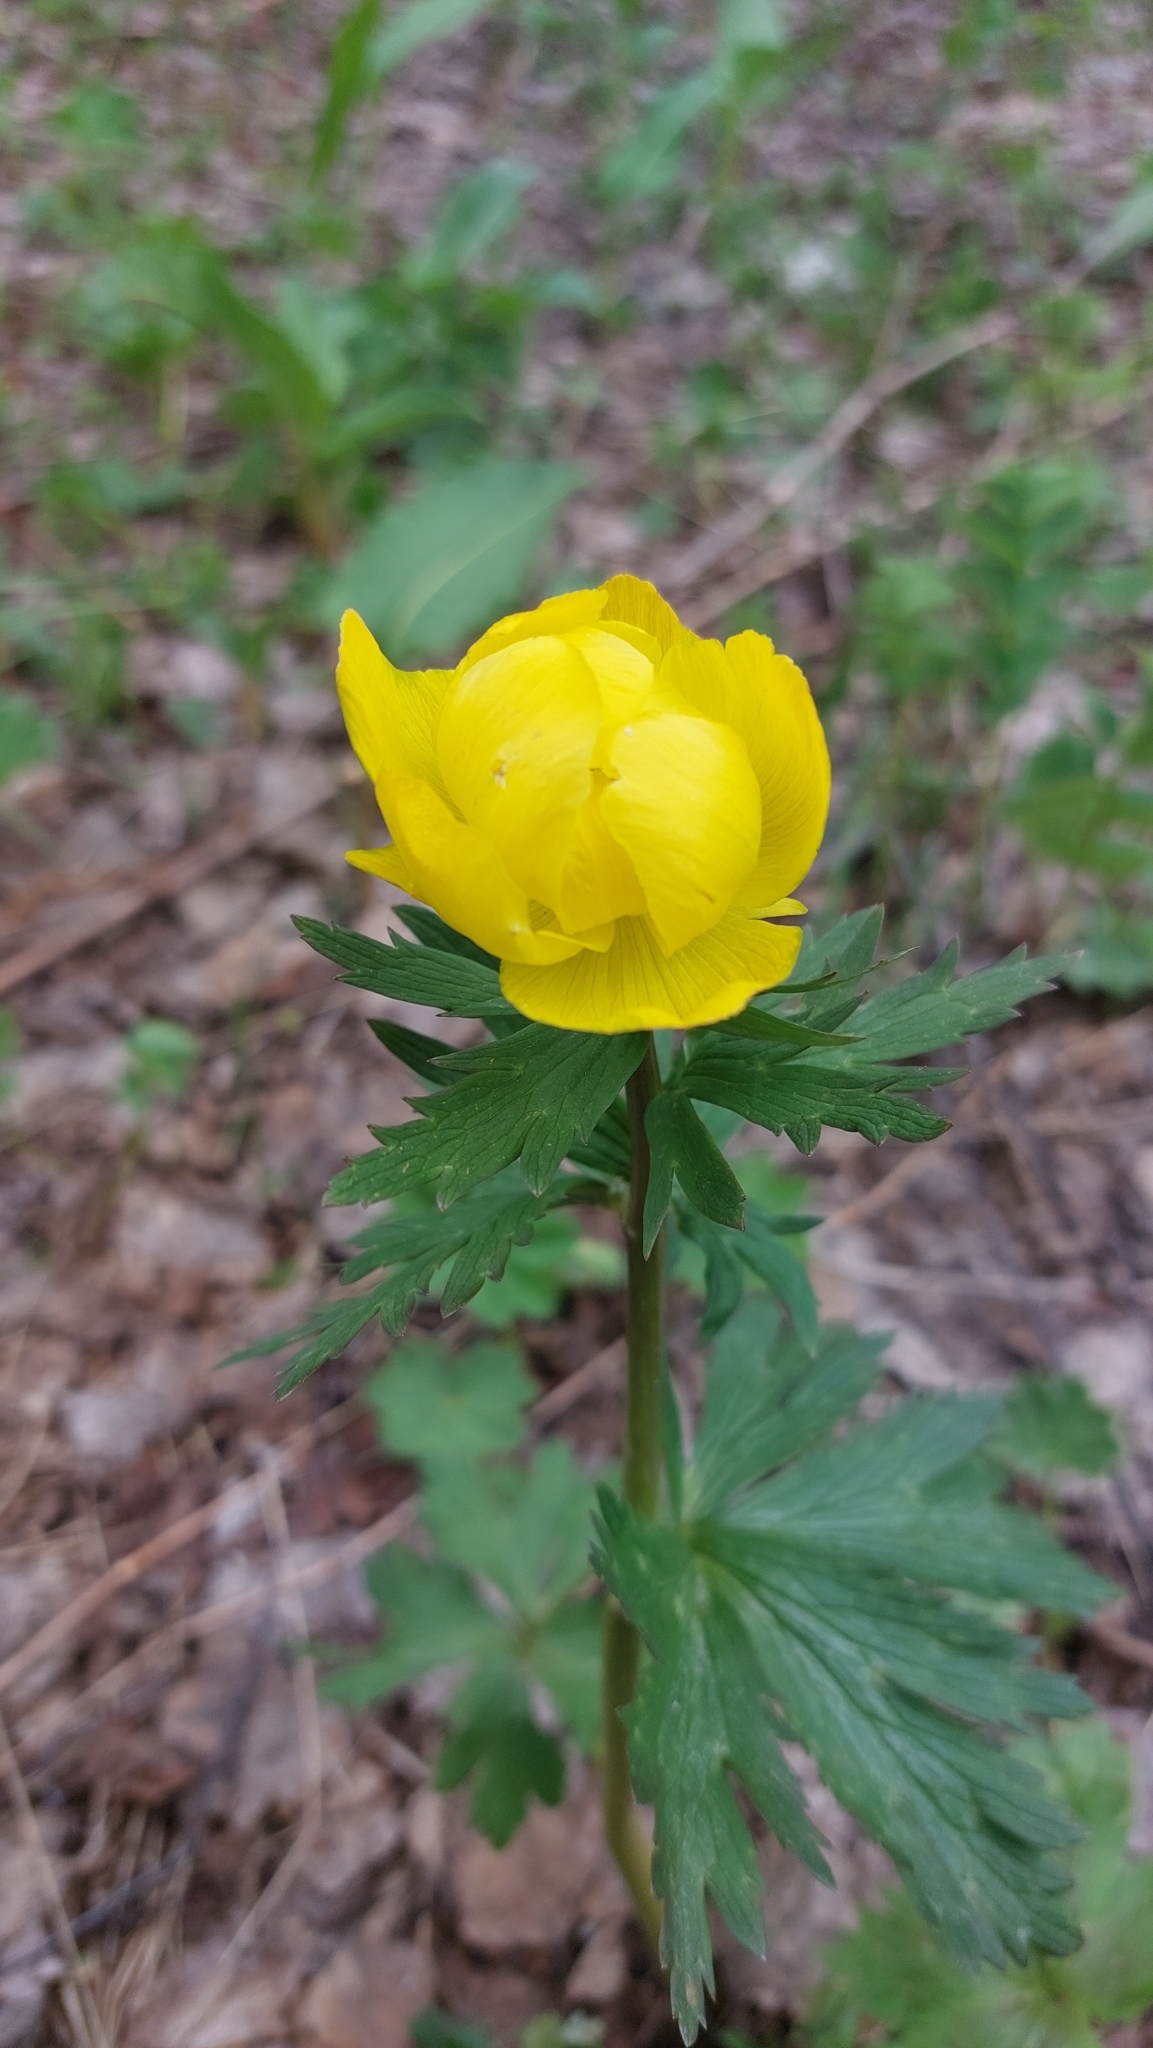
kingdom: Plantae
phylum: Tracheophyta
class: Magnoliopsida
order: Ranunculales
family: Ranunculaceae
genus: Trollius
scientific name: Trollius europaeus
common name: European globeflower
